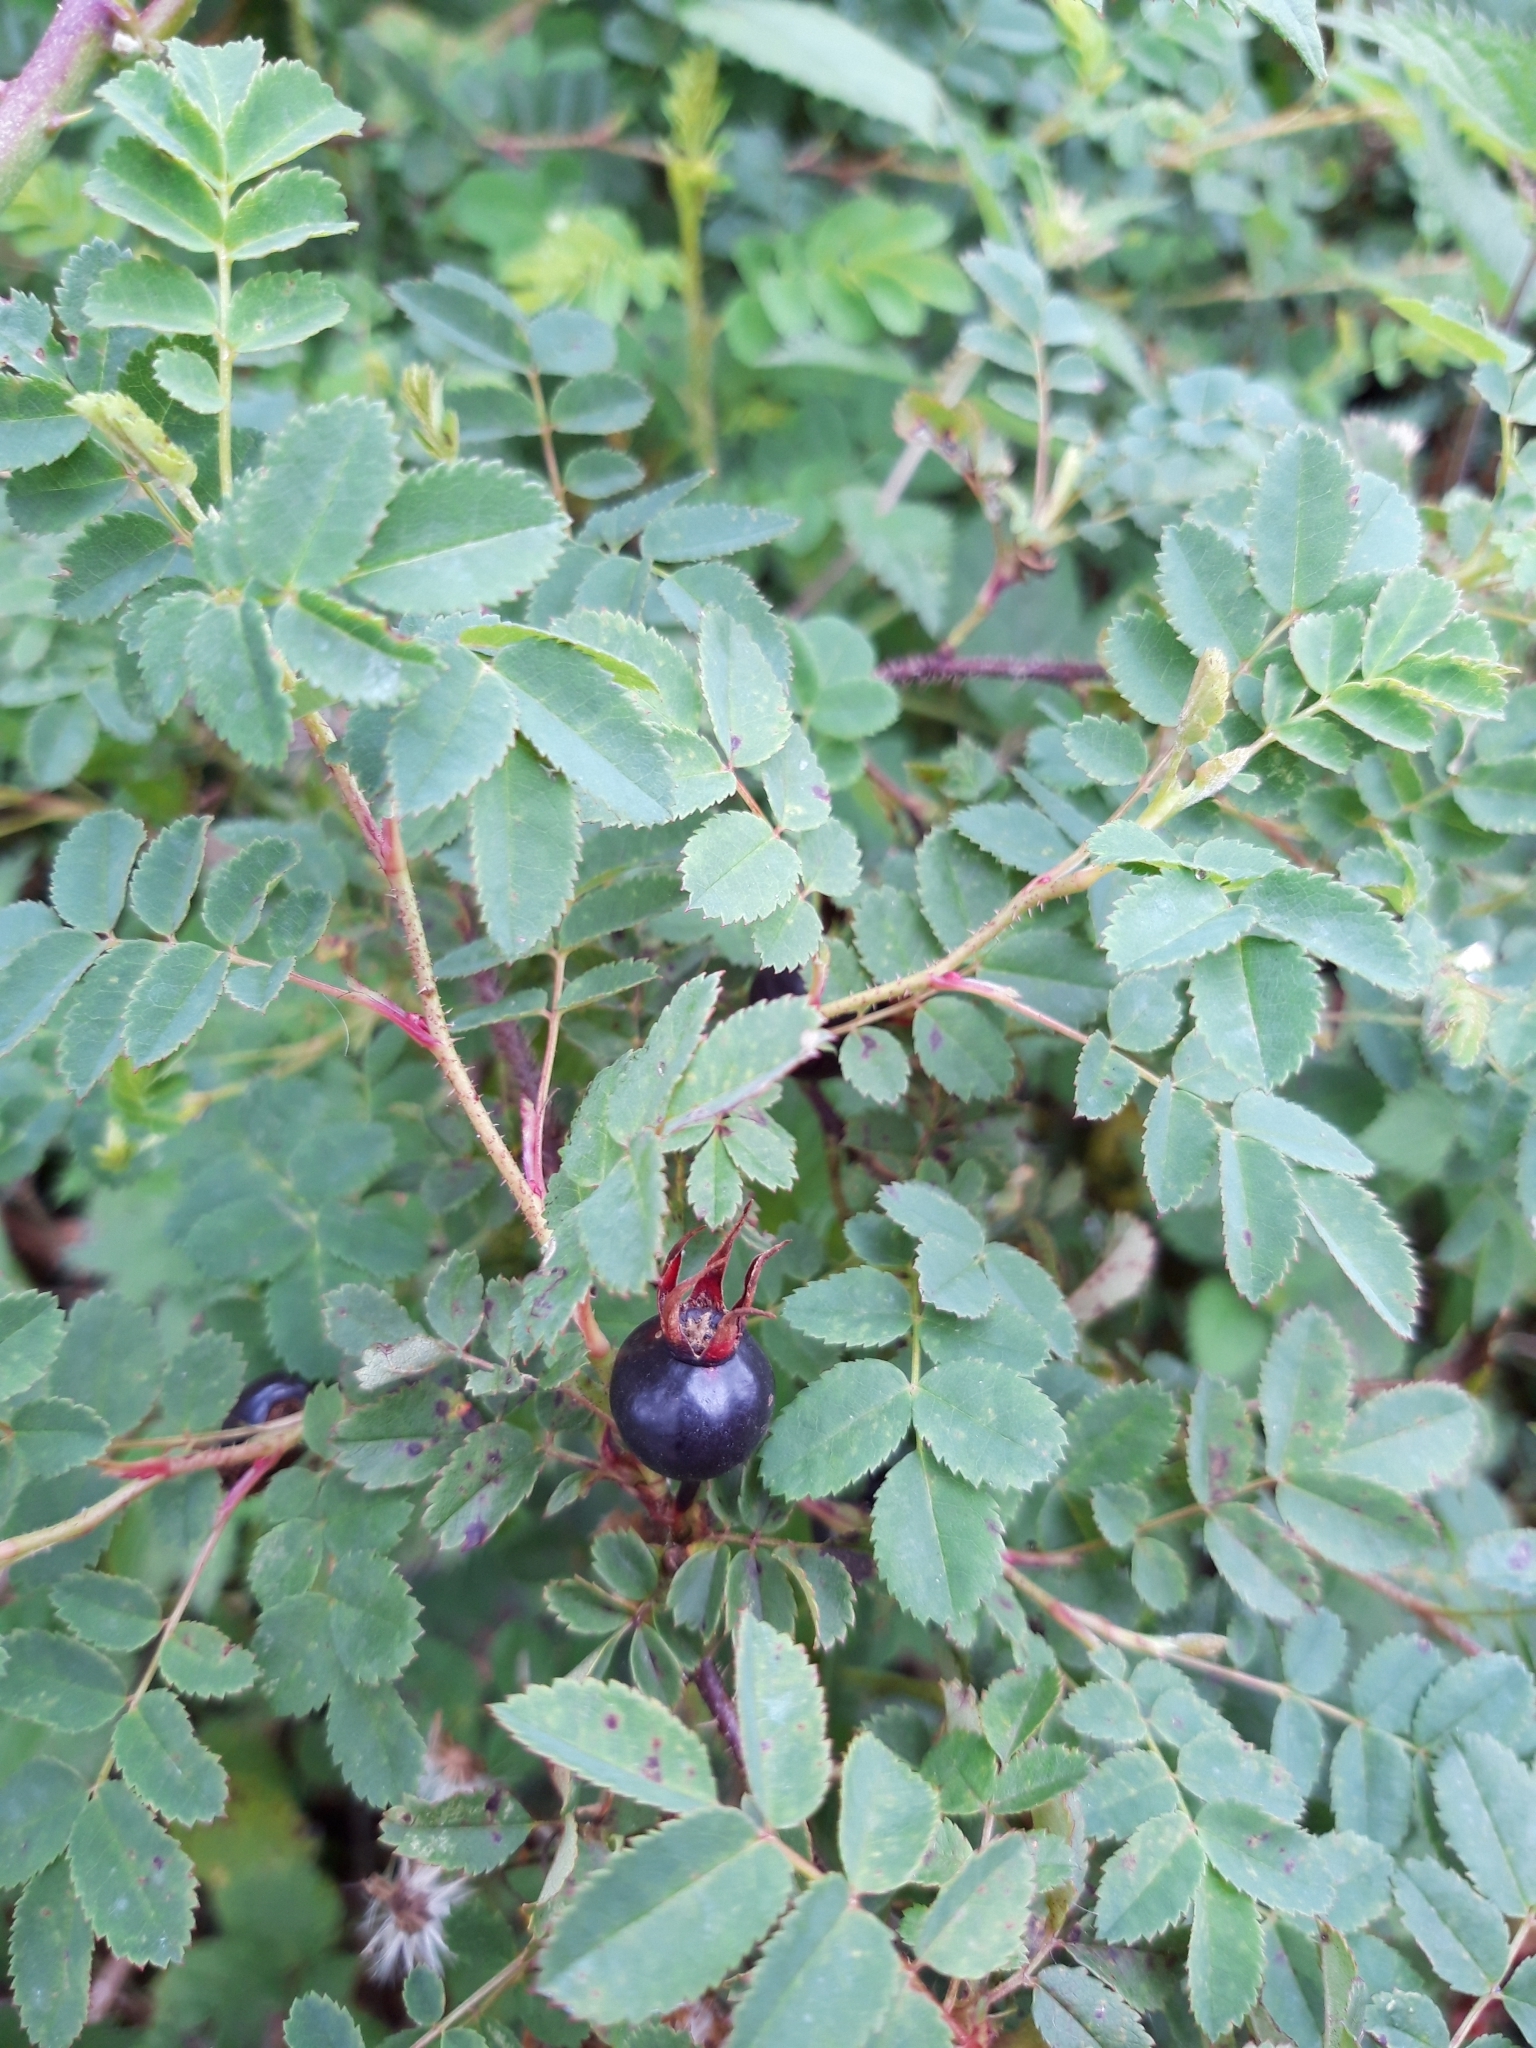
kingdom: Plantae
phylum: Tracheophyta
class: Magnoliopsida
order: Rosales
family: Rosaceae
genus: Rosa
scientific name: Rosa spinosissima
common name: Burnet rose
